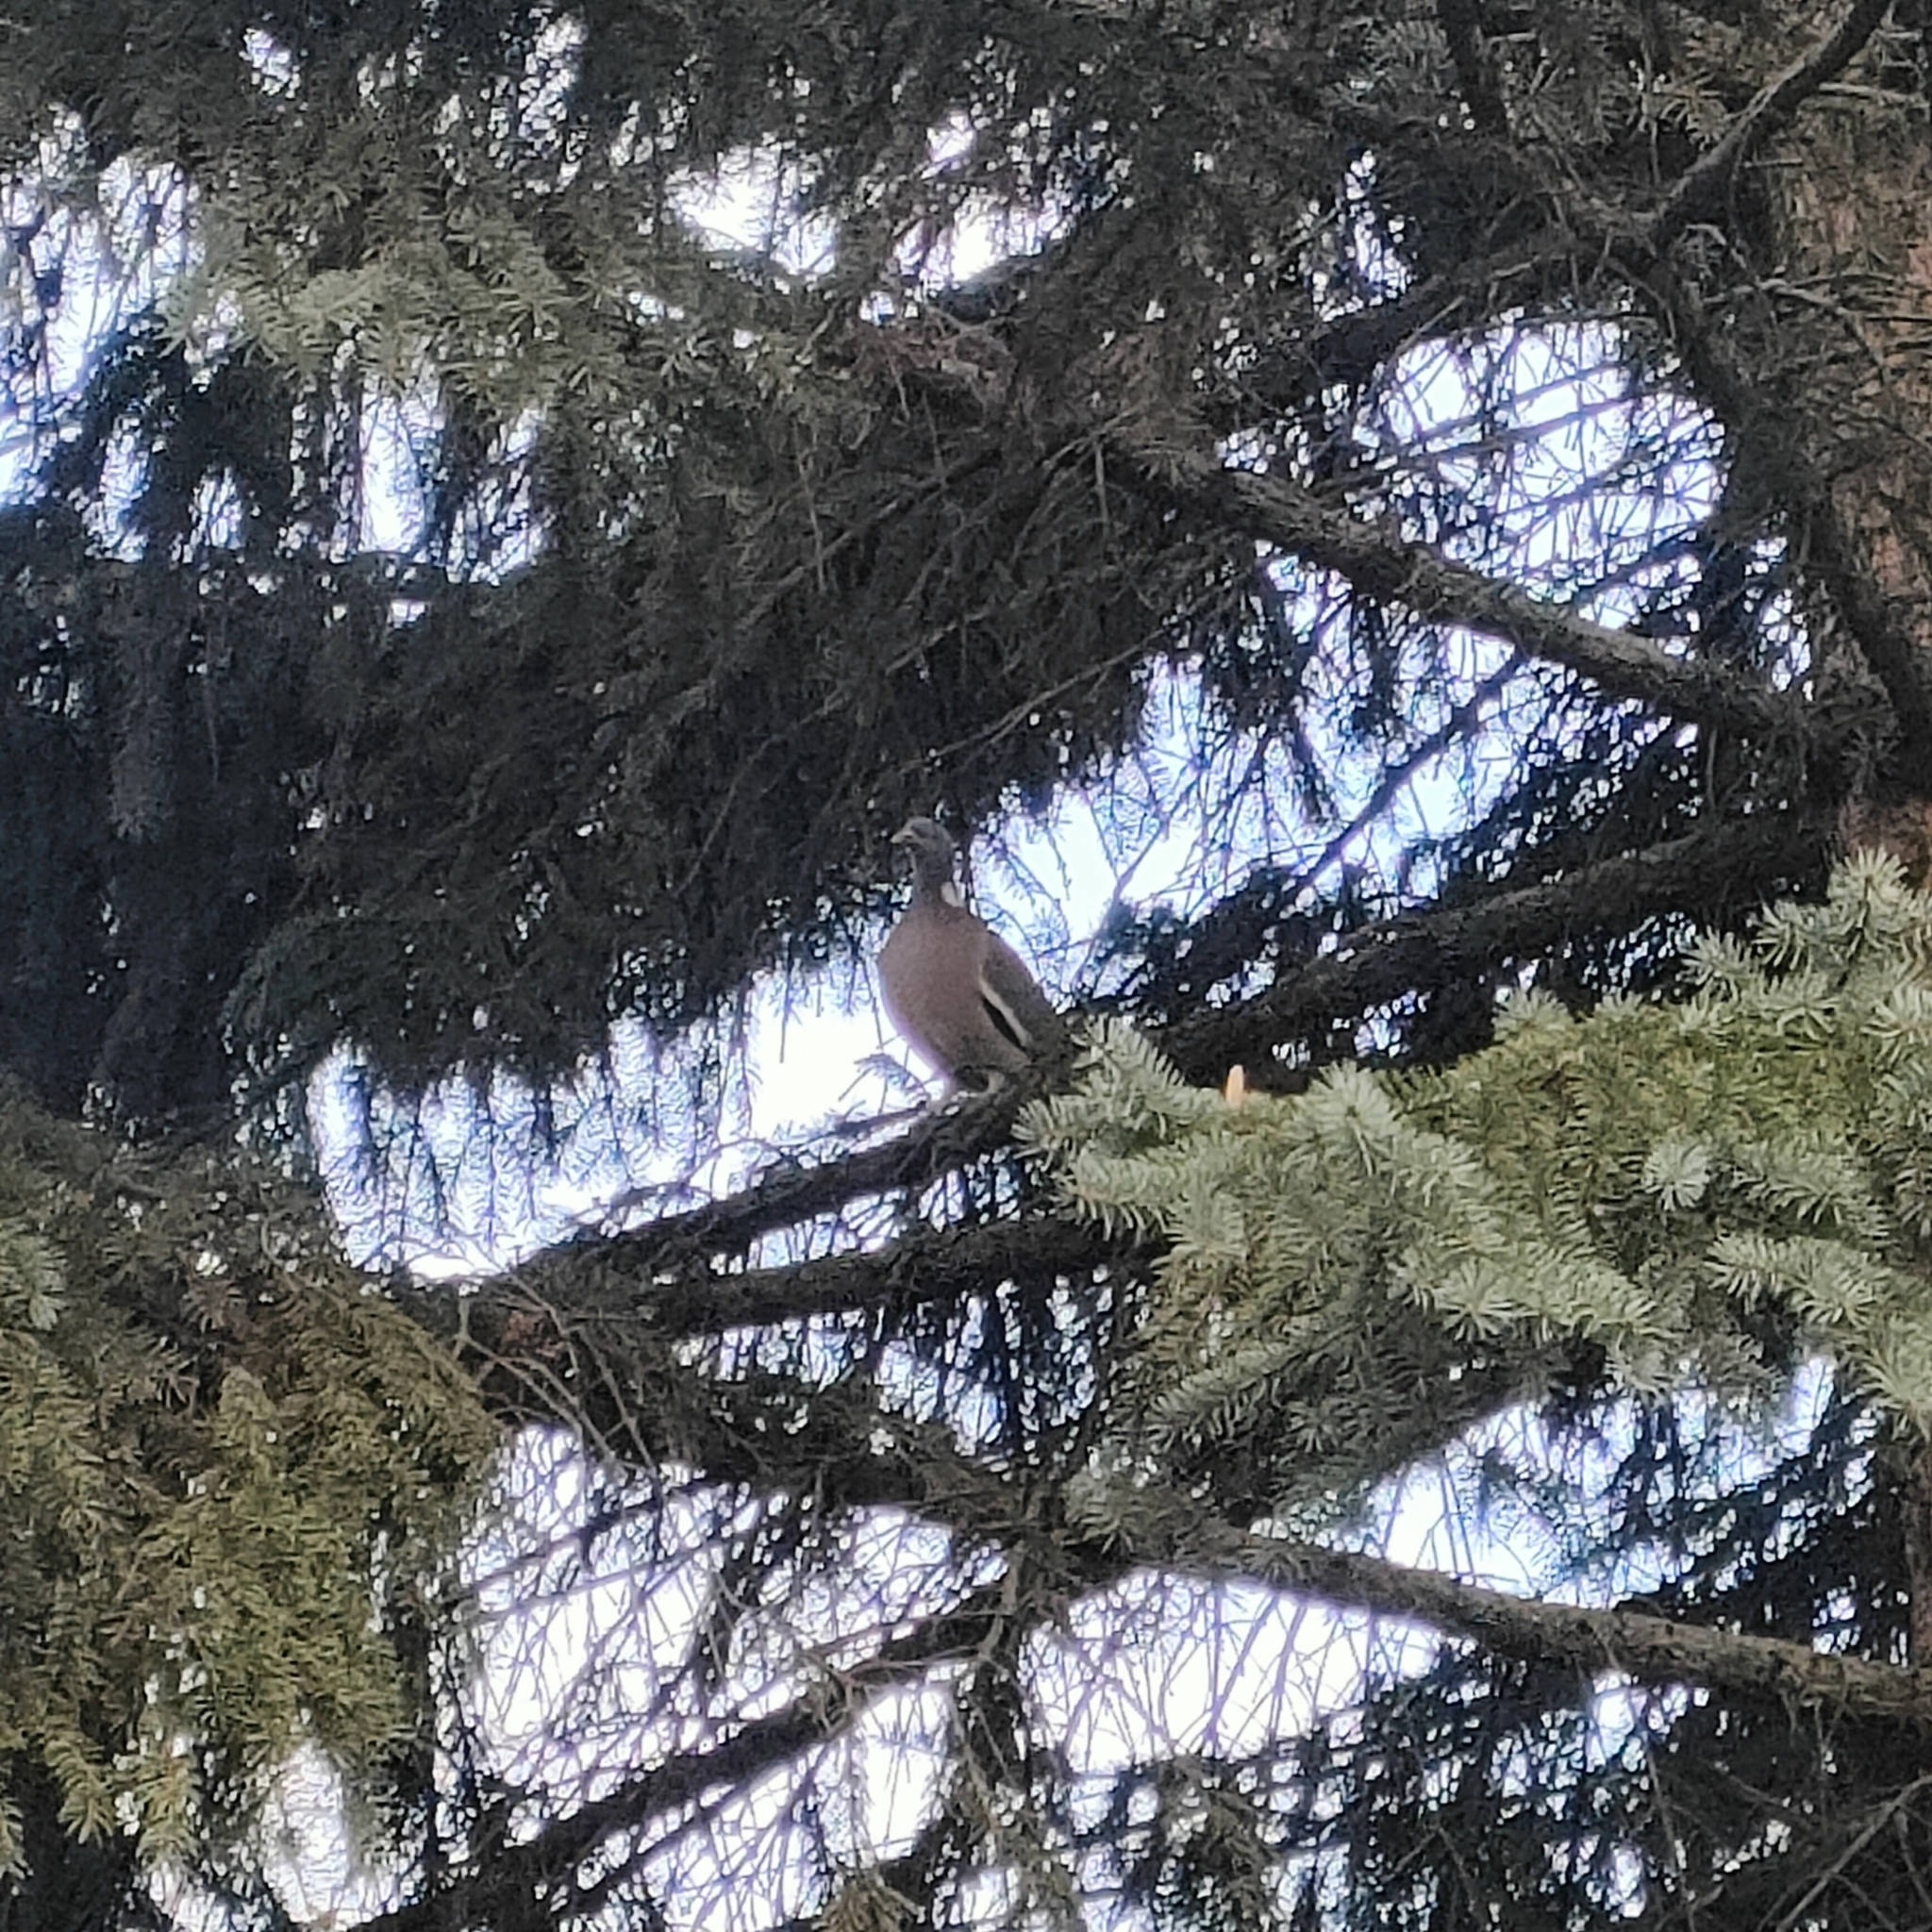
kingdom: Animalia
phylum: Chordata
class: Aves
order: Columbiformes
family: Columbidae
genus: Columba
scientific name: Columba palumbus
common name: Common wood pigeon
